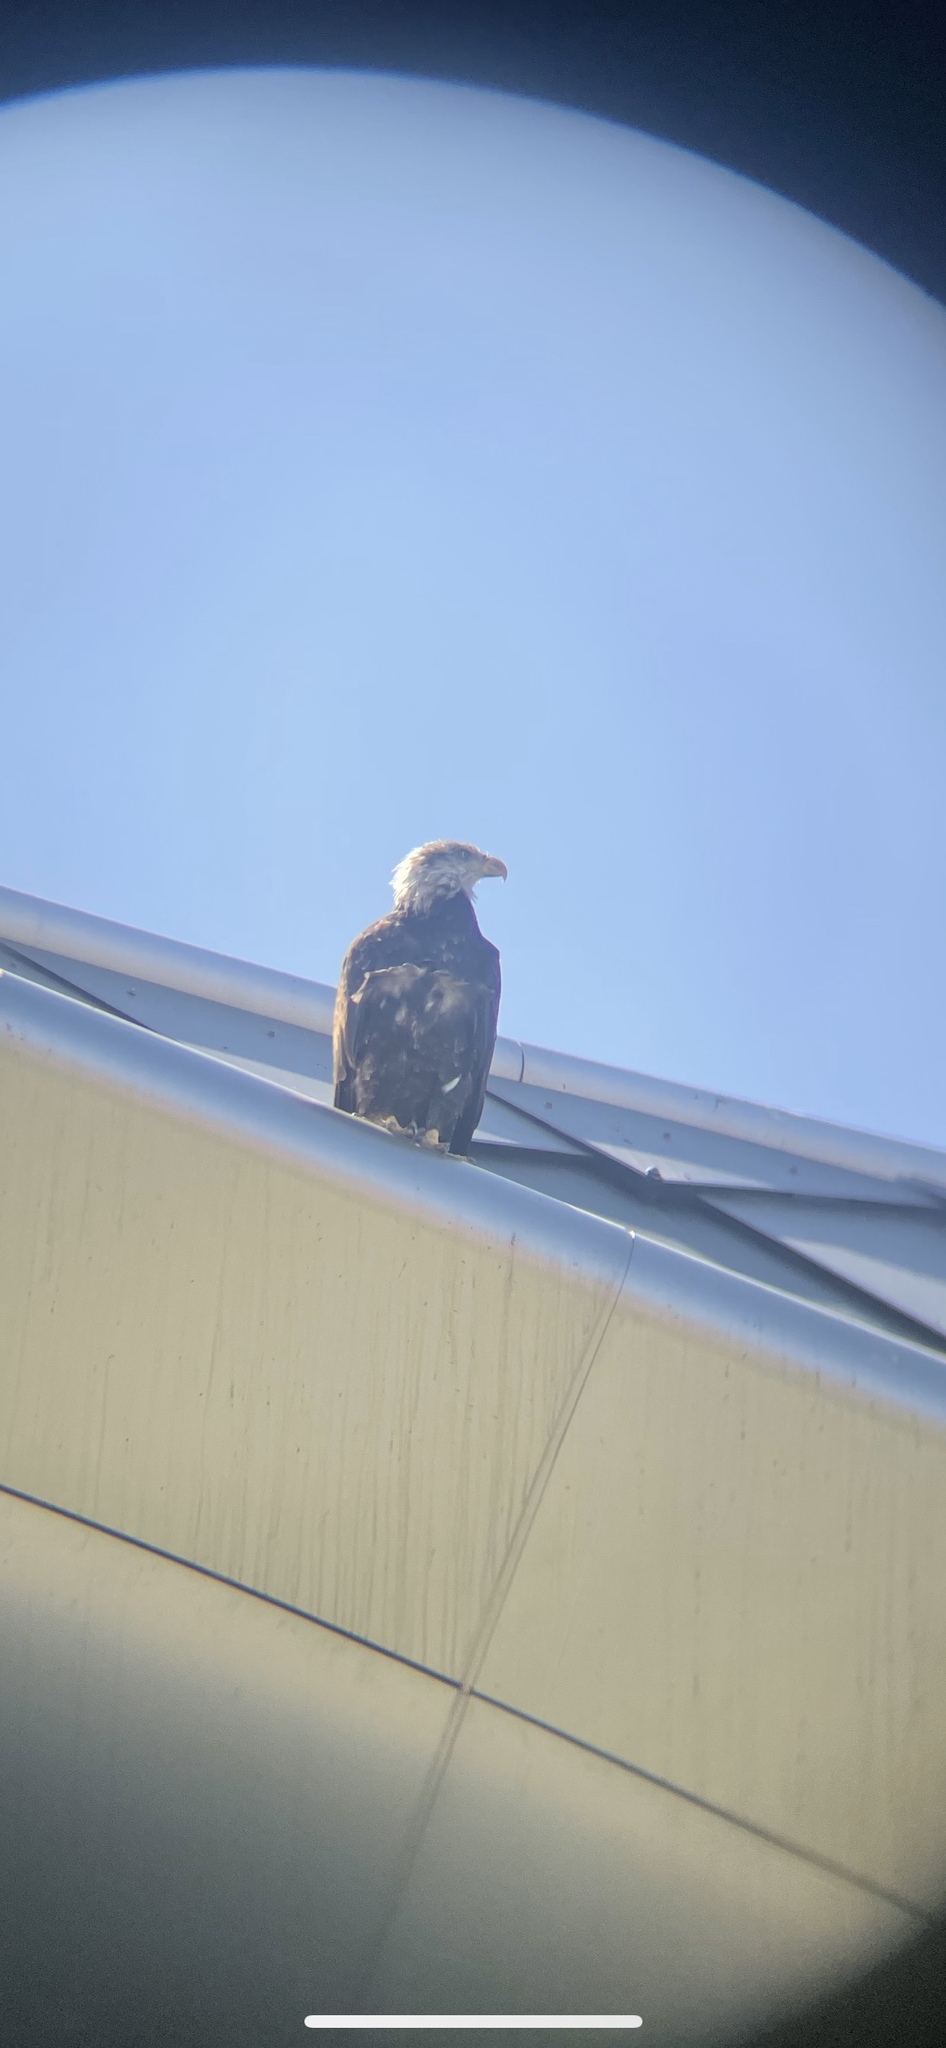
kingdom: Animalia
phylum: Chordata
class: Aves
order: Accipitriformes
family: Accipitridae
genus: Haliaeetus
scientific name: Haliaeetus leucocephalus
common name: Bald eagle
